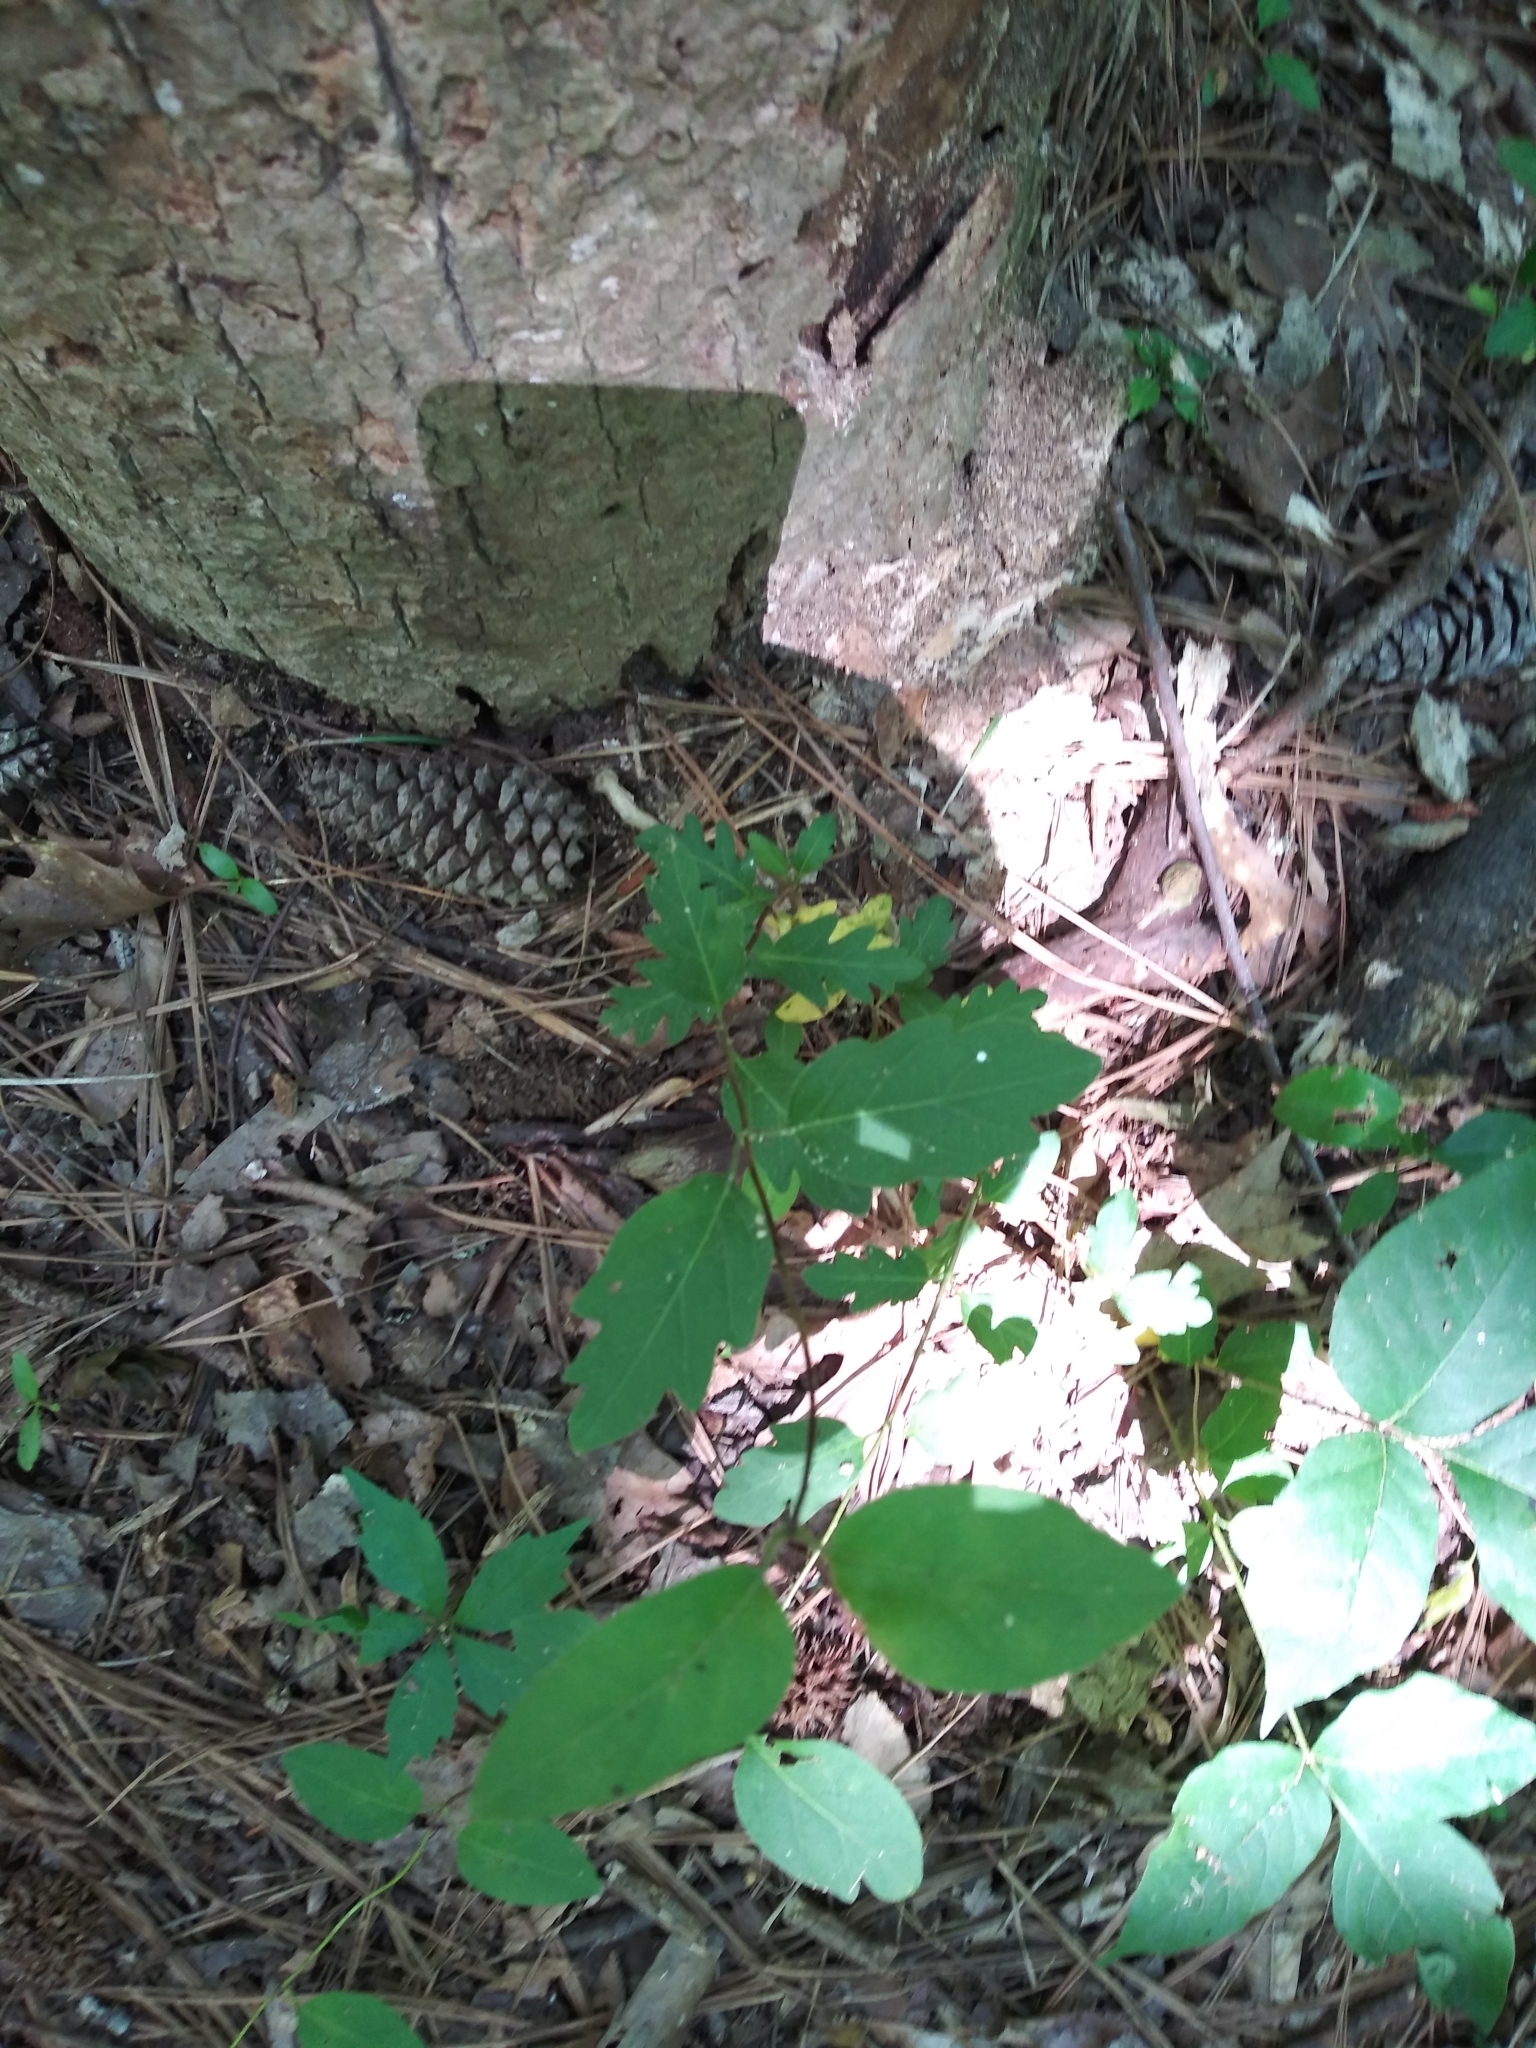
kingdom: Plantae
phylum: Tracheophyta
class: Magnoliopsida
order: Dipsacales
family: Caprifoliaceae
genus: Lonicera
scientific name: Lonicera japonica
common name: Japanese honeysuckle
